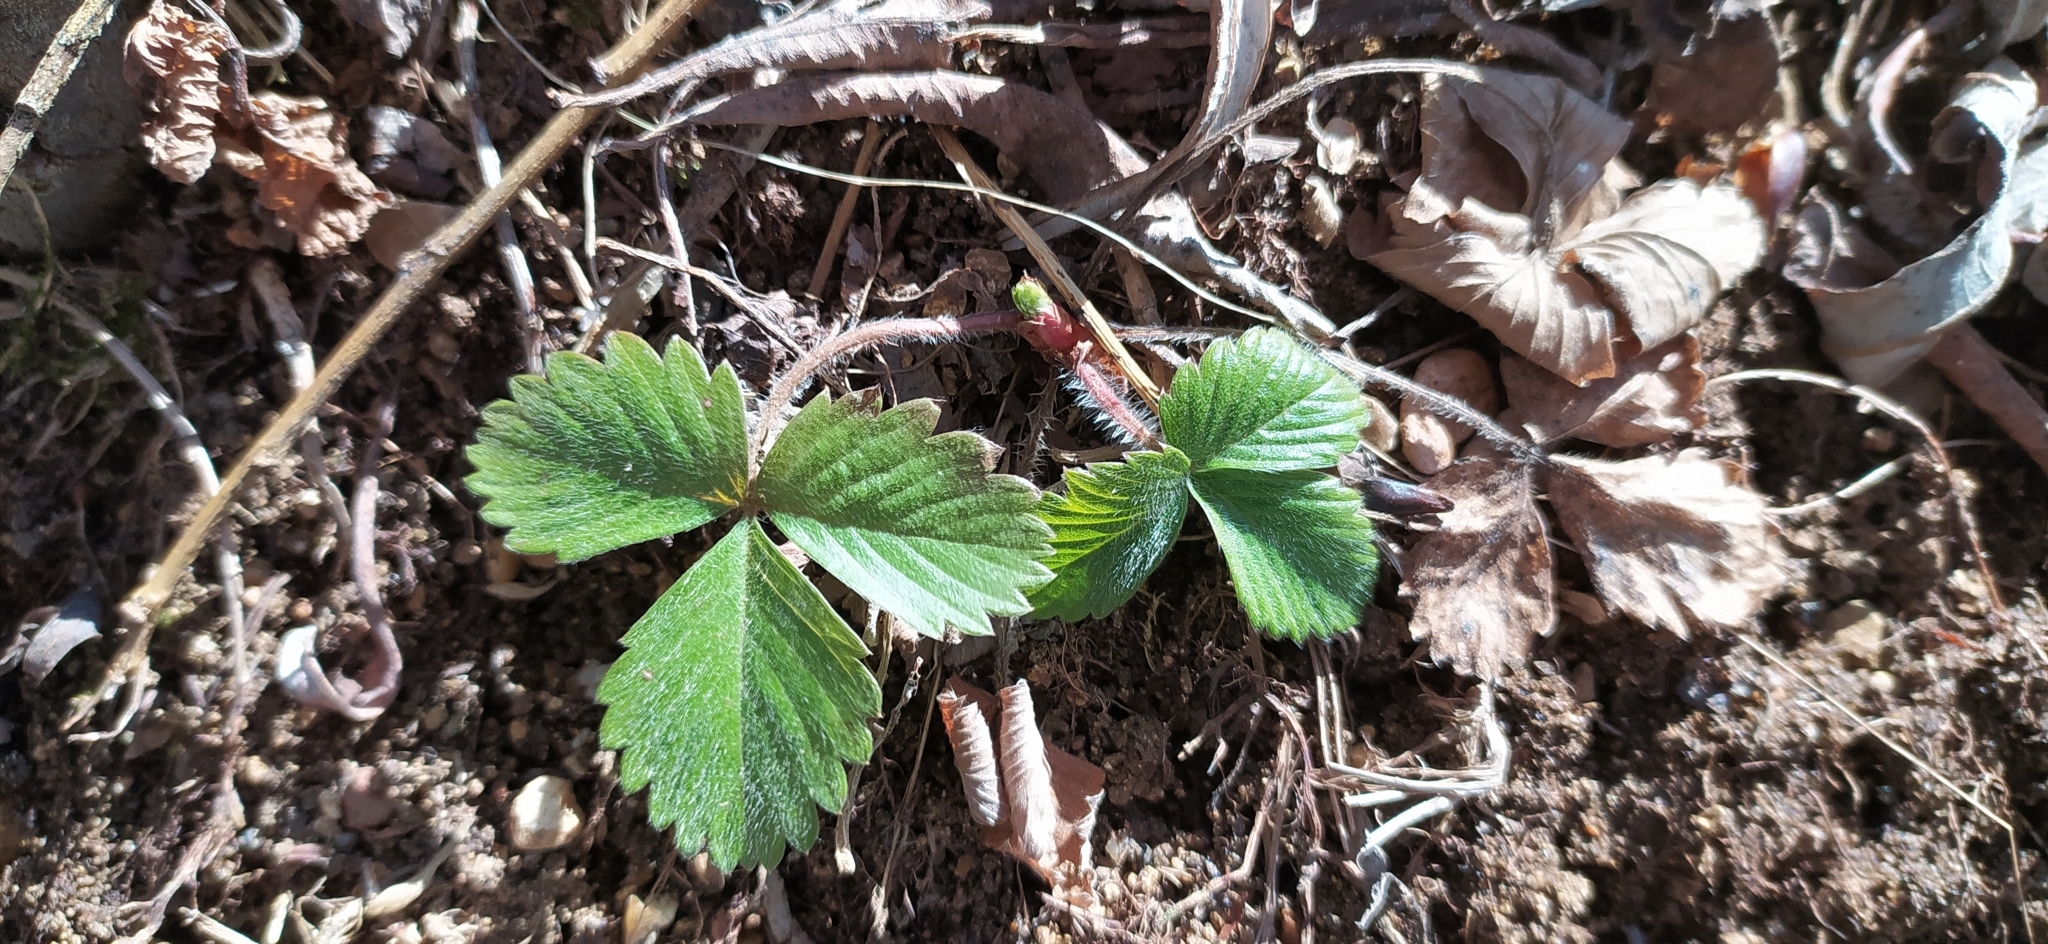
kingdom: Plantae
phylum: Tracheophyta
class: Magnoliopsida
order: Rosales
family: Rosaceae
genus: Fragaria
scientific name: Fragaria vesca
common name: Wild strawberry
